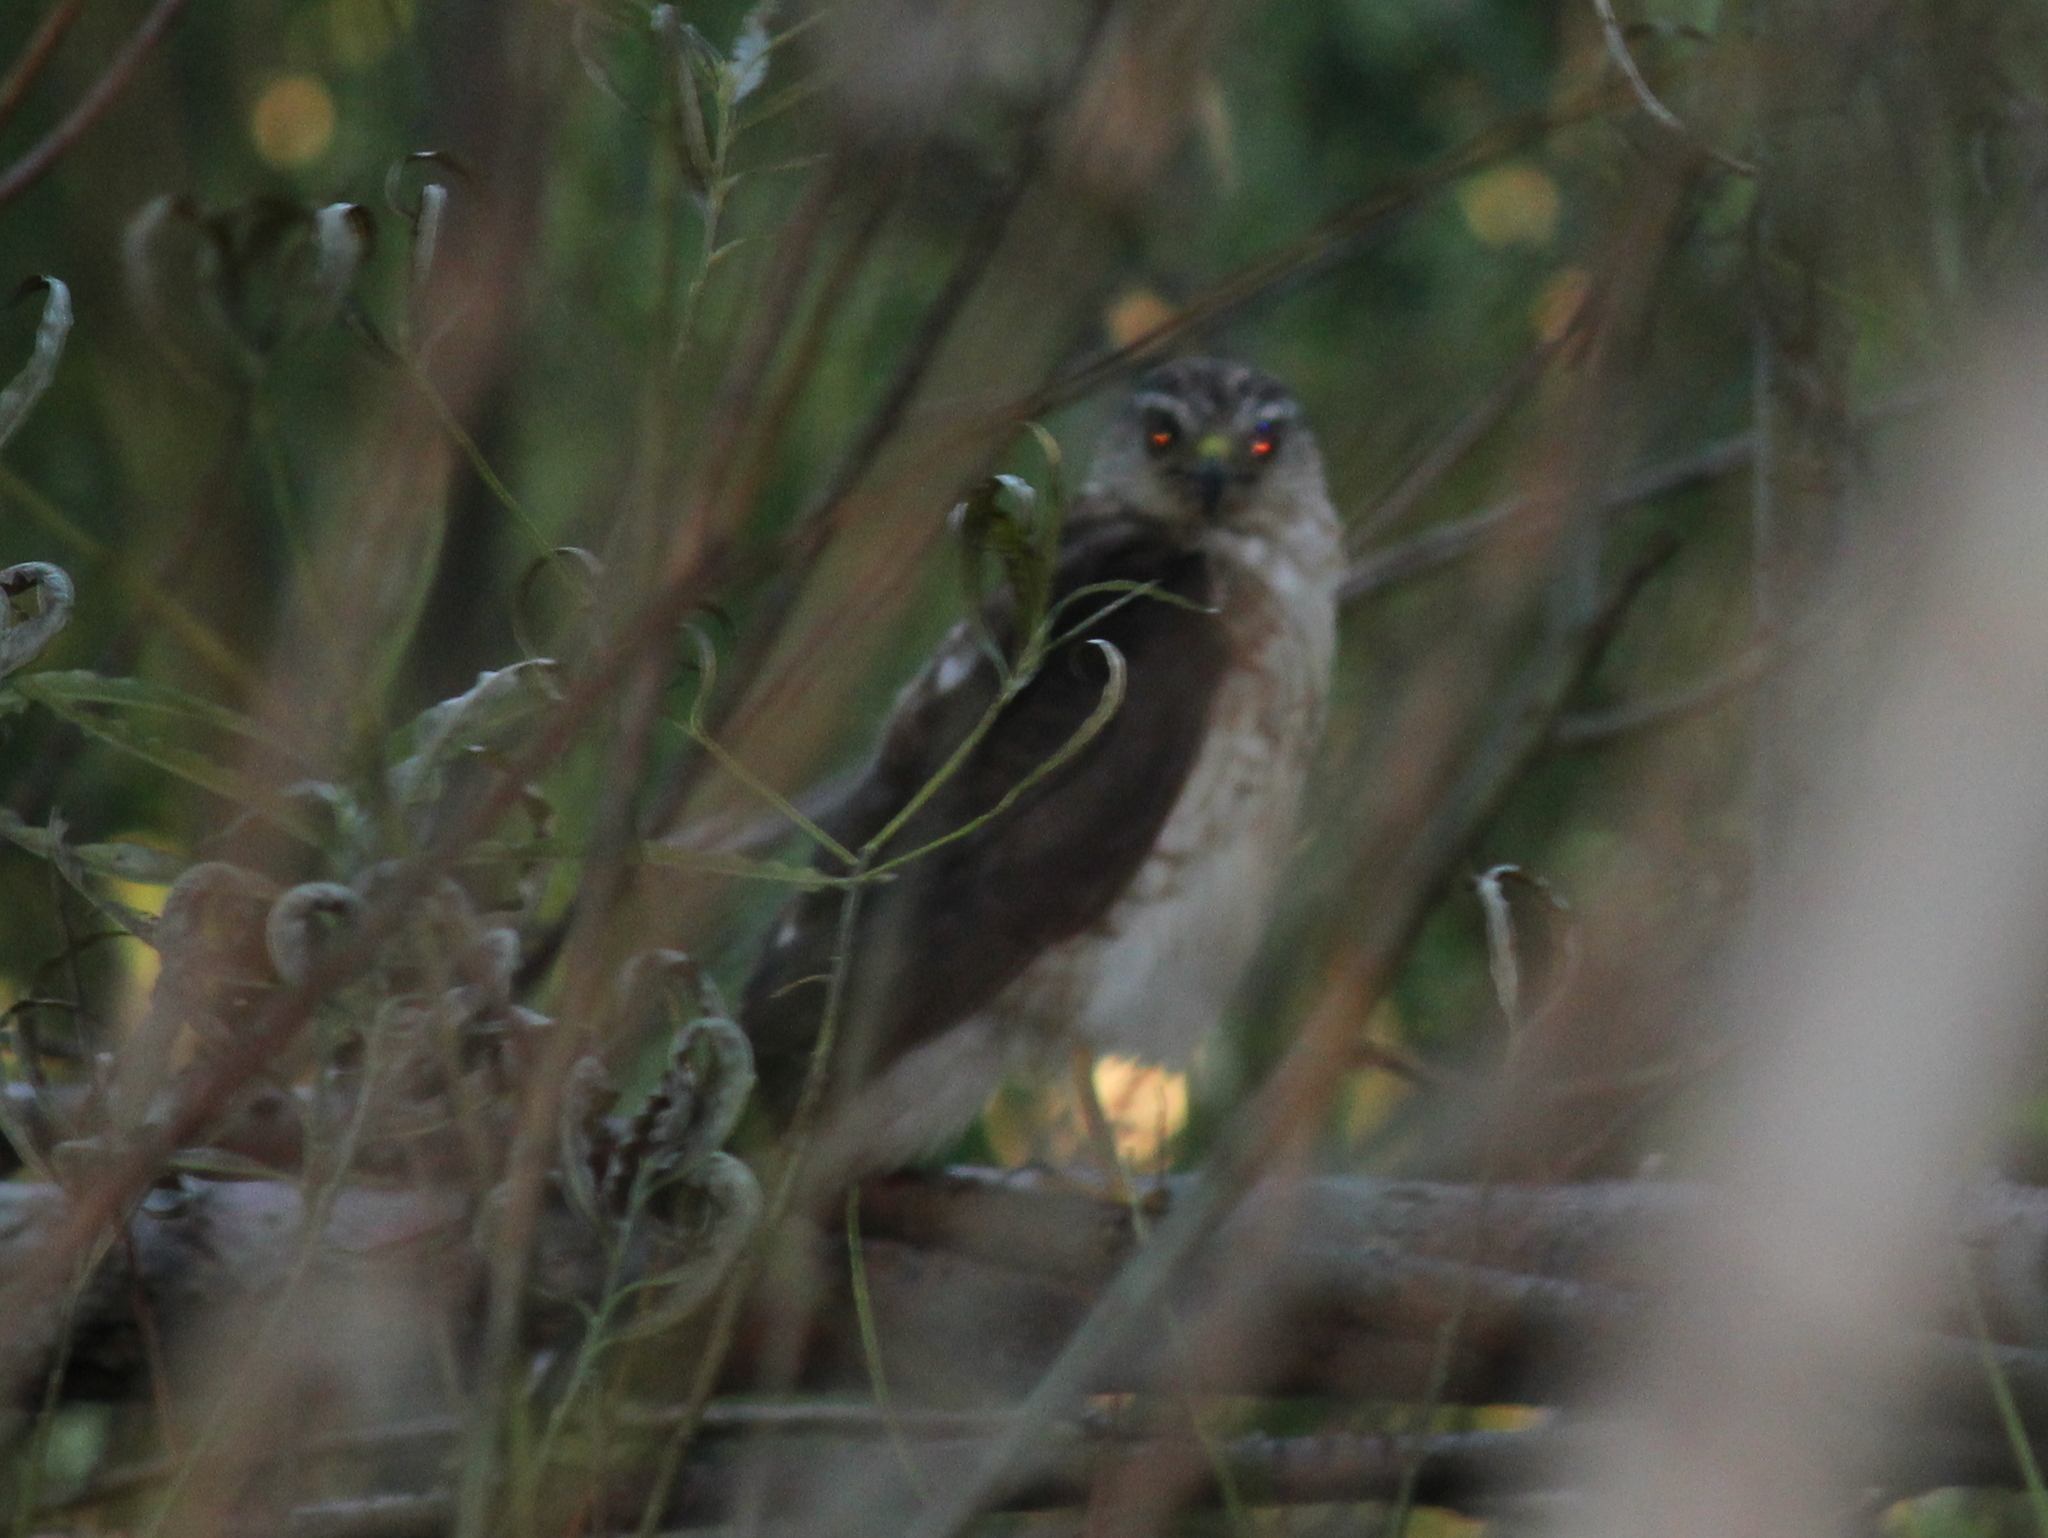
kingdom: Animalia
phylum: Chordata
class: Aves
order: Accipitriformes
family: Accipitridae
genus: Accipiter
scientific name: Accipiter striatus
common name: Sharp-shinned hawk
